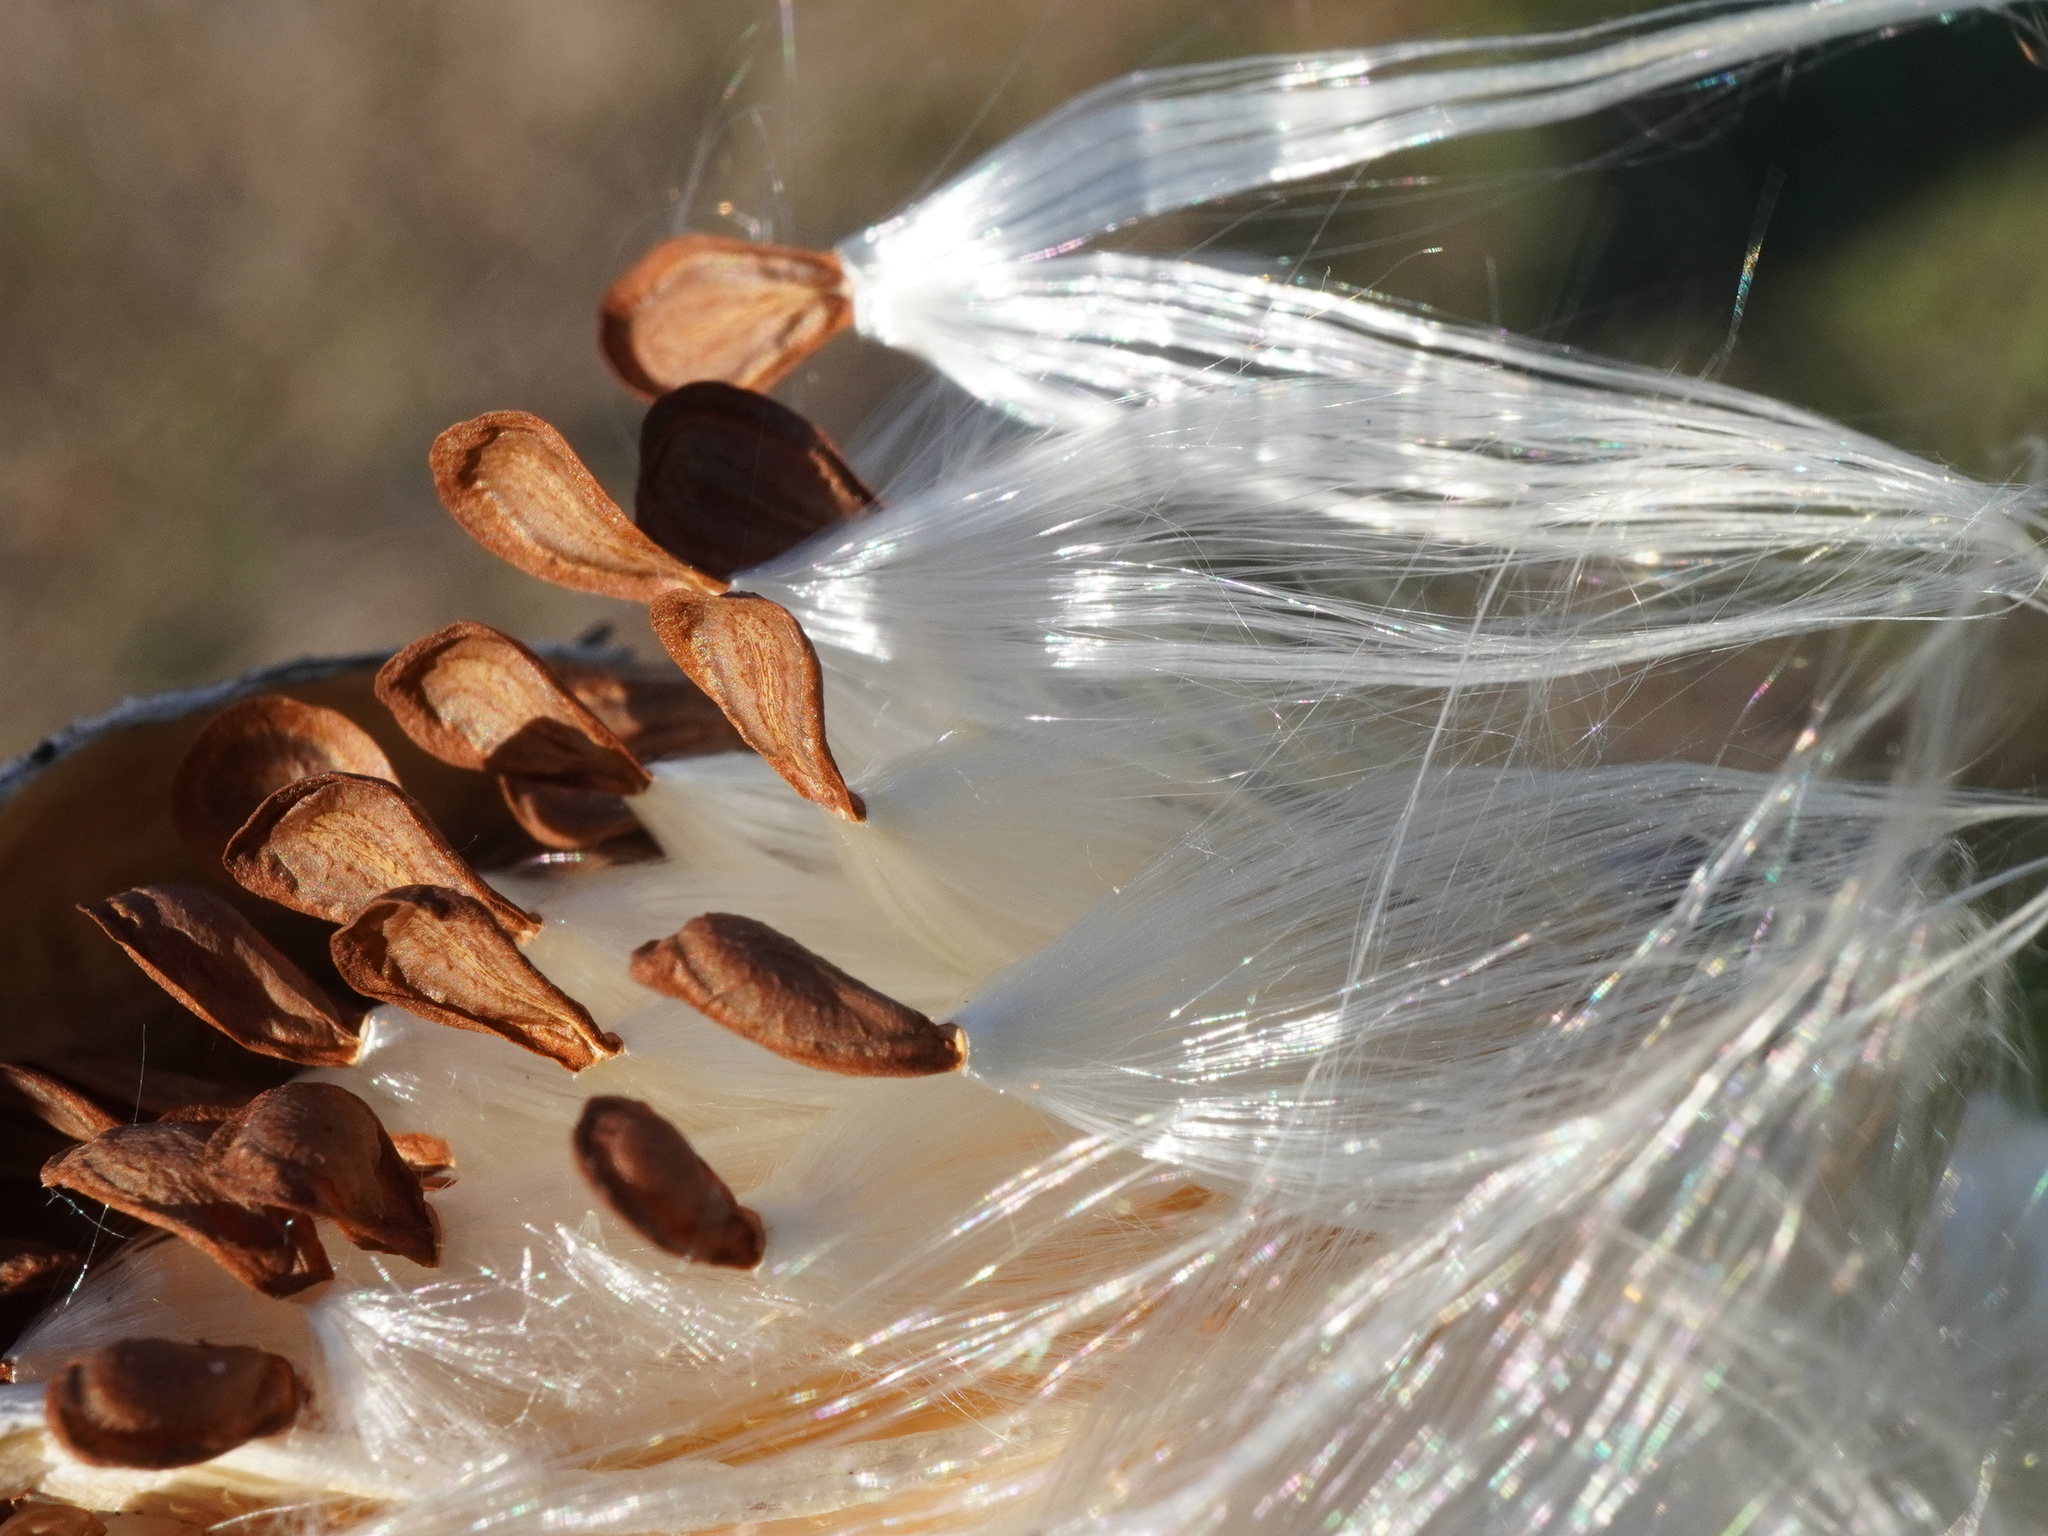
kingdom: Plantae
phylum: Tracheophyta
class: Magnoliopsida
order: Gentianales
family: Apocynaceae
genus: Asclepias
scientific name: Asclepias syriaca
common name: Common milkweed
